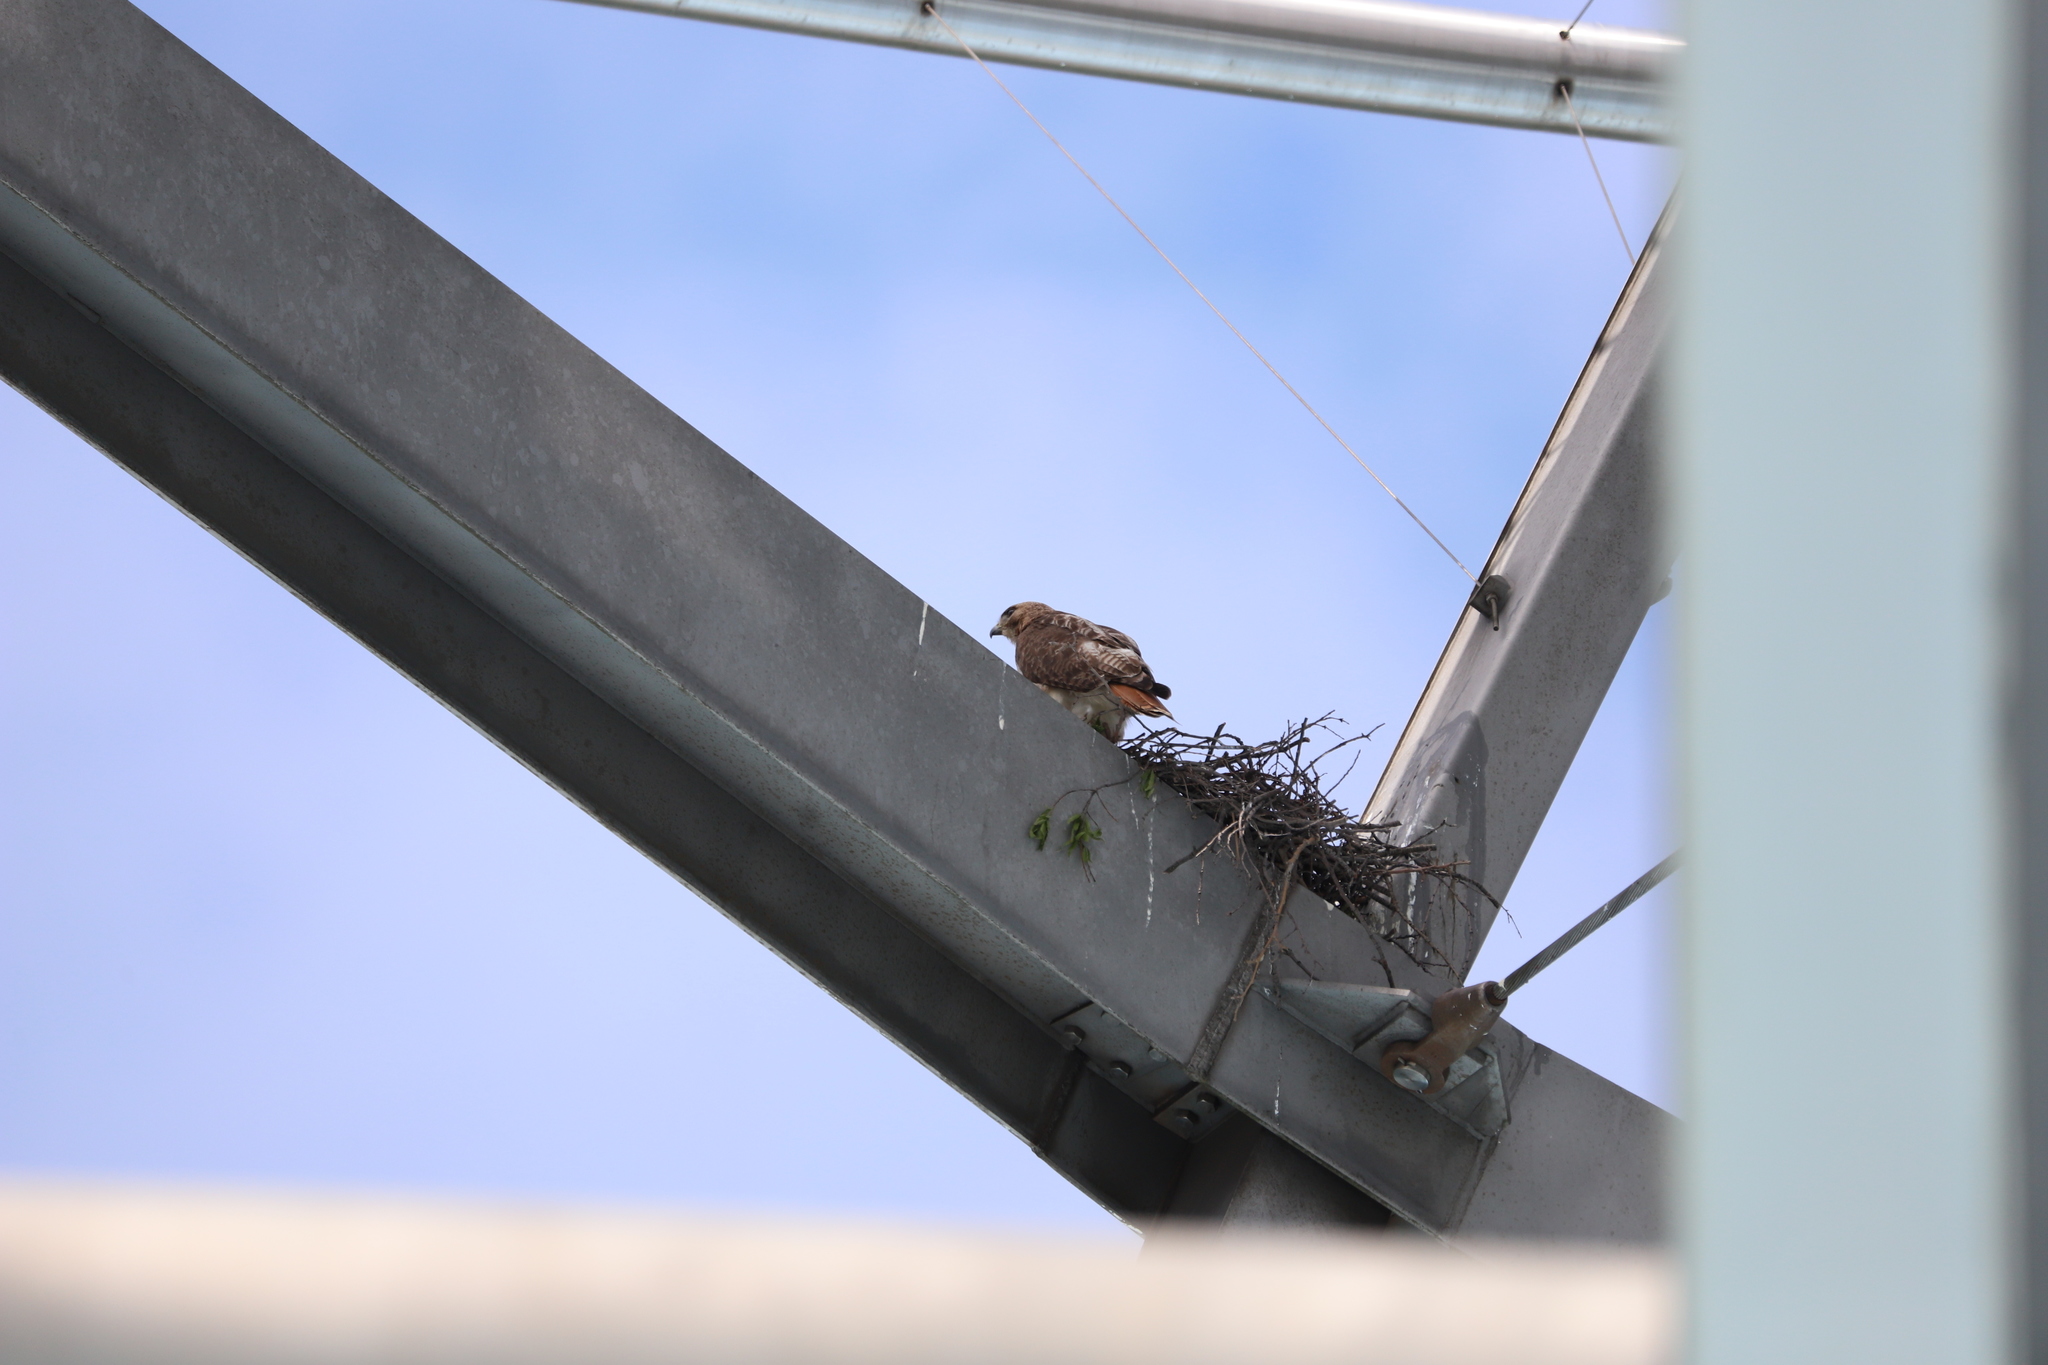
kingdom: Animalia
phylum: Chordata
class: Aves
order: Accipitriformes
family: Accipitridae
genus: Buteo
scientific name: Buteo jamaicensis
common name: Red-tailed hawk
